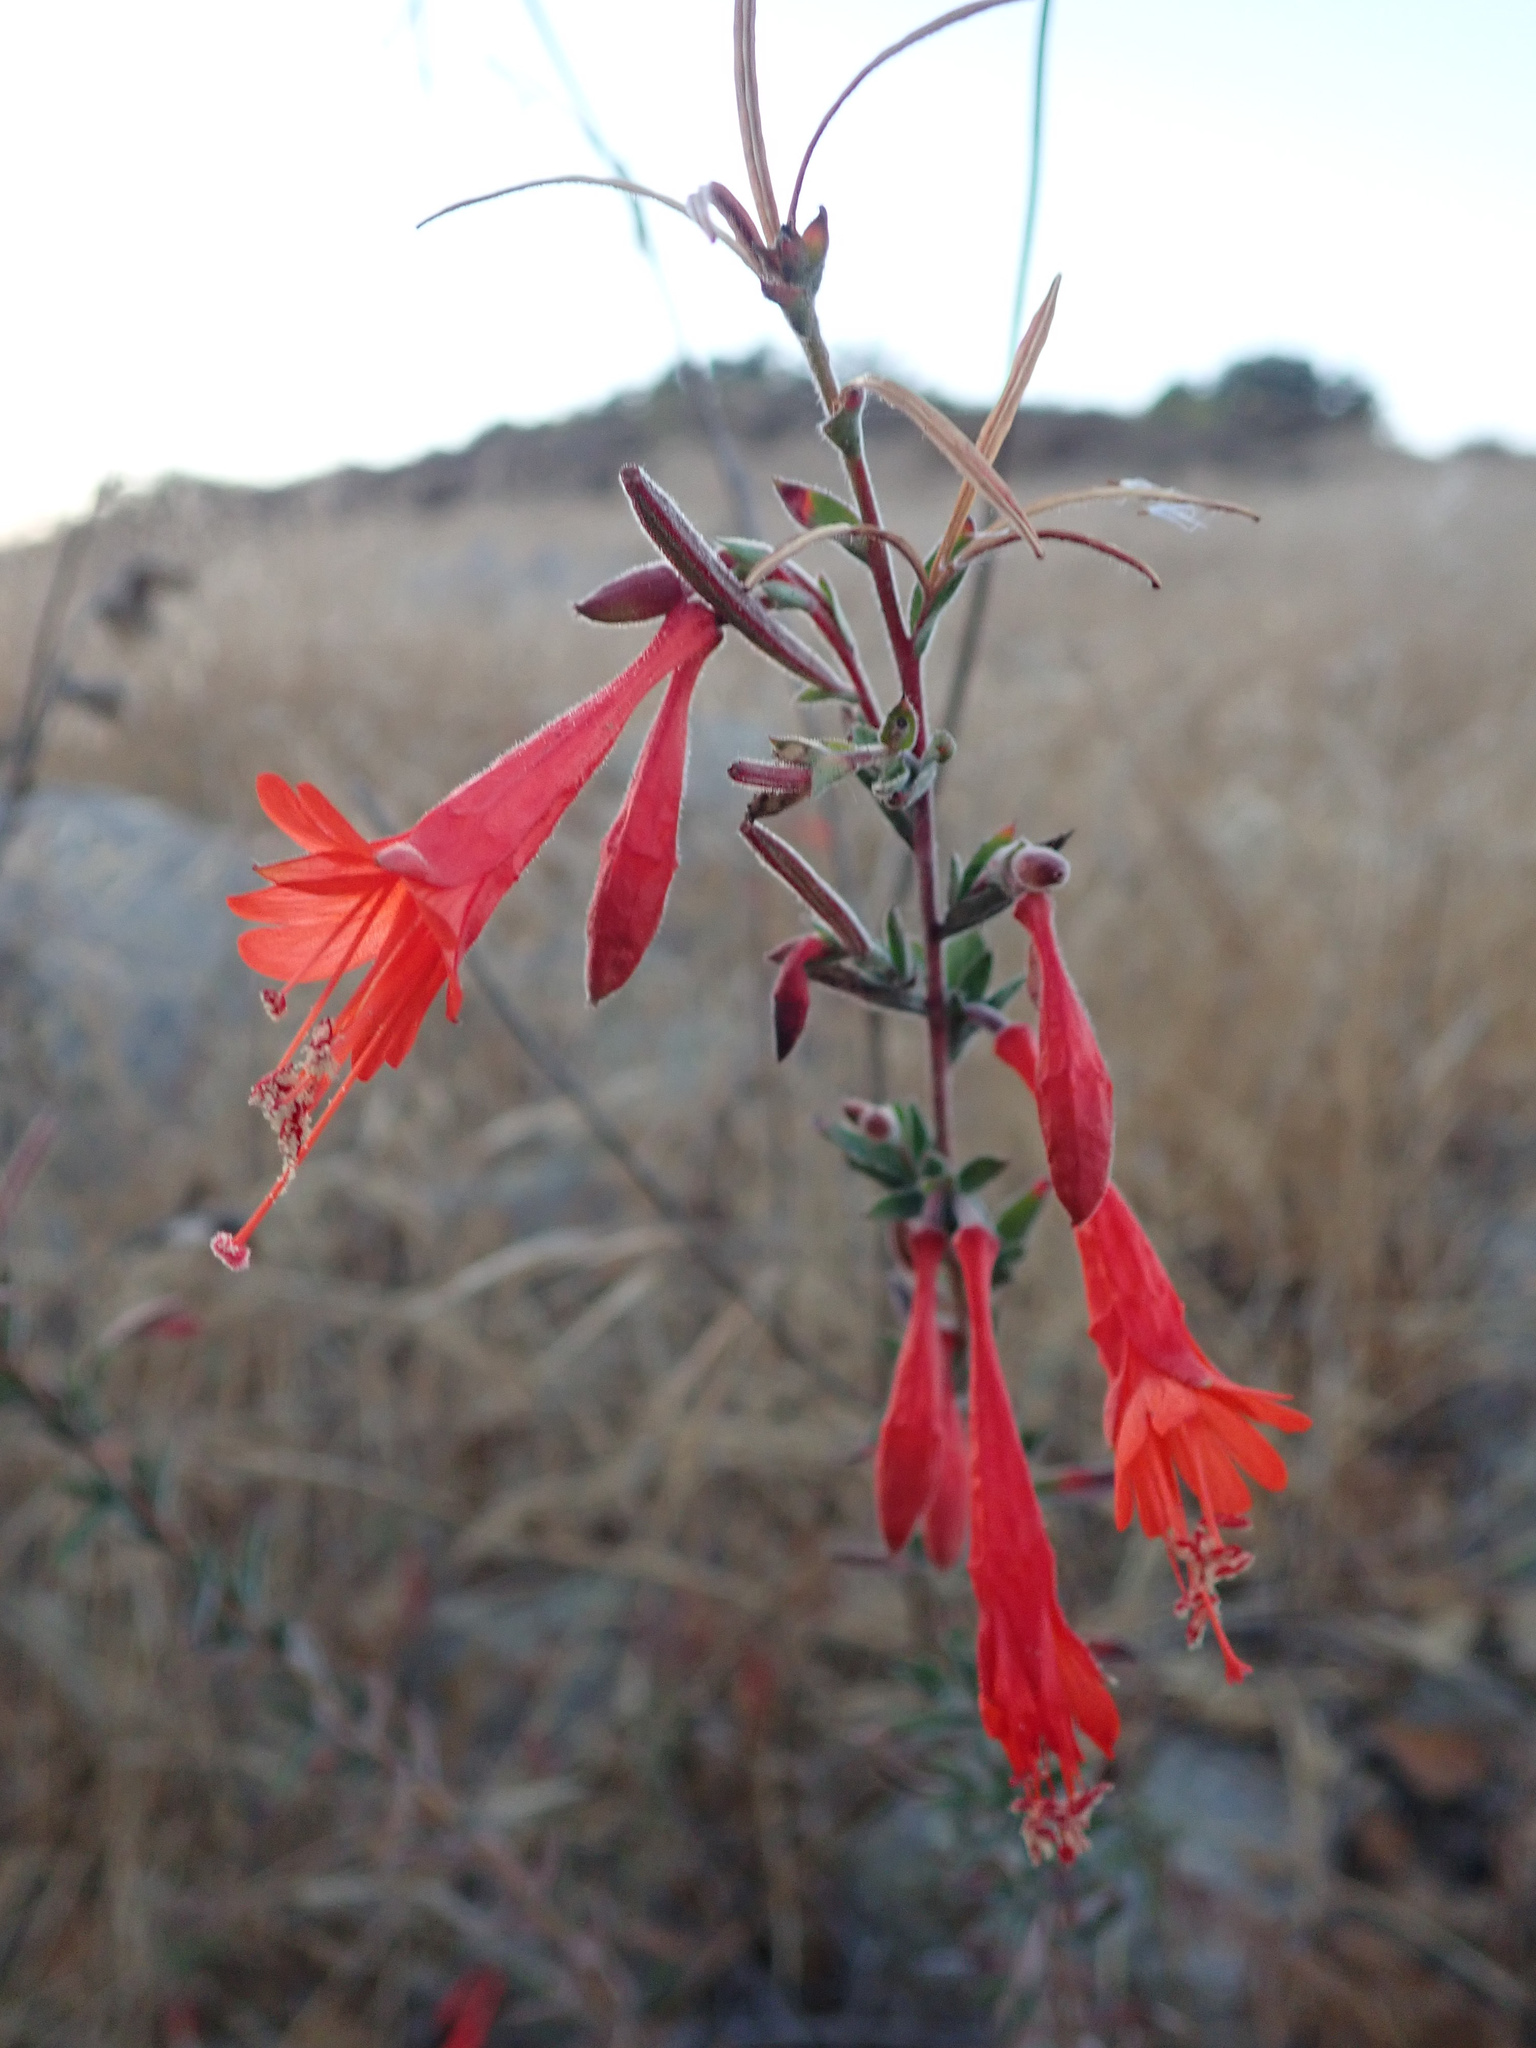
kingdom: Plantae
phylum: Tracheophyta
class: Magnoliopsida
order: Myrtales
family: Onagraceae
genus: Epilobium
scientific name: Epilobium canum
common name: California-fuchsia
